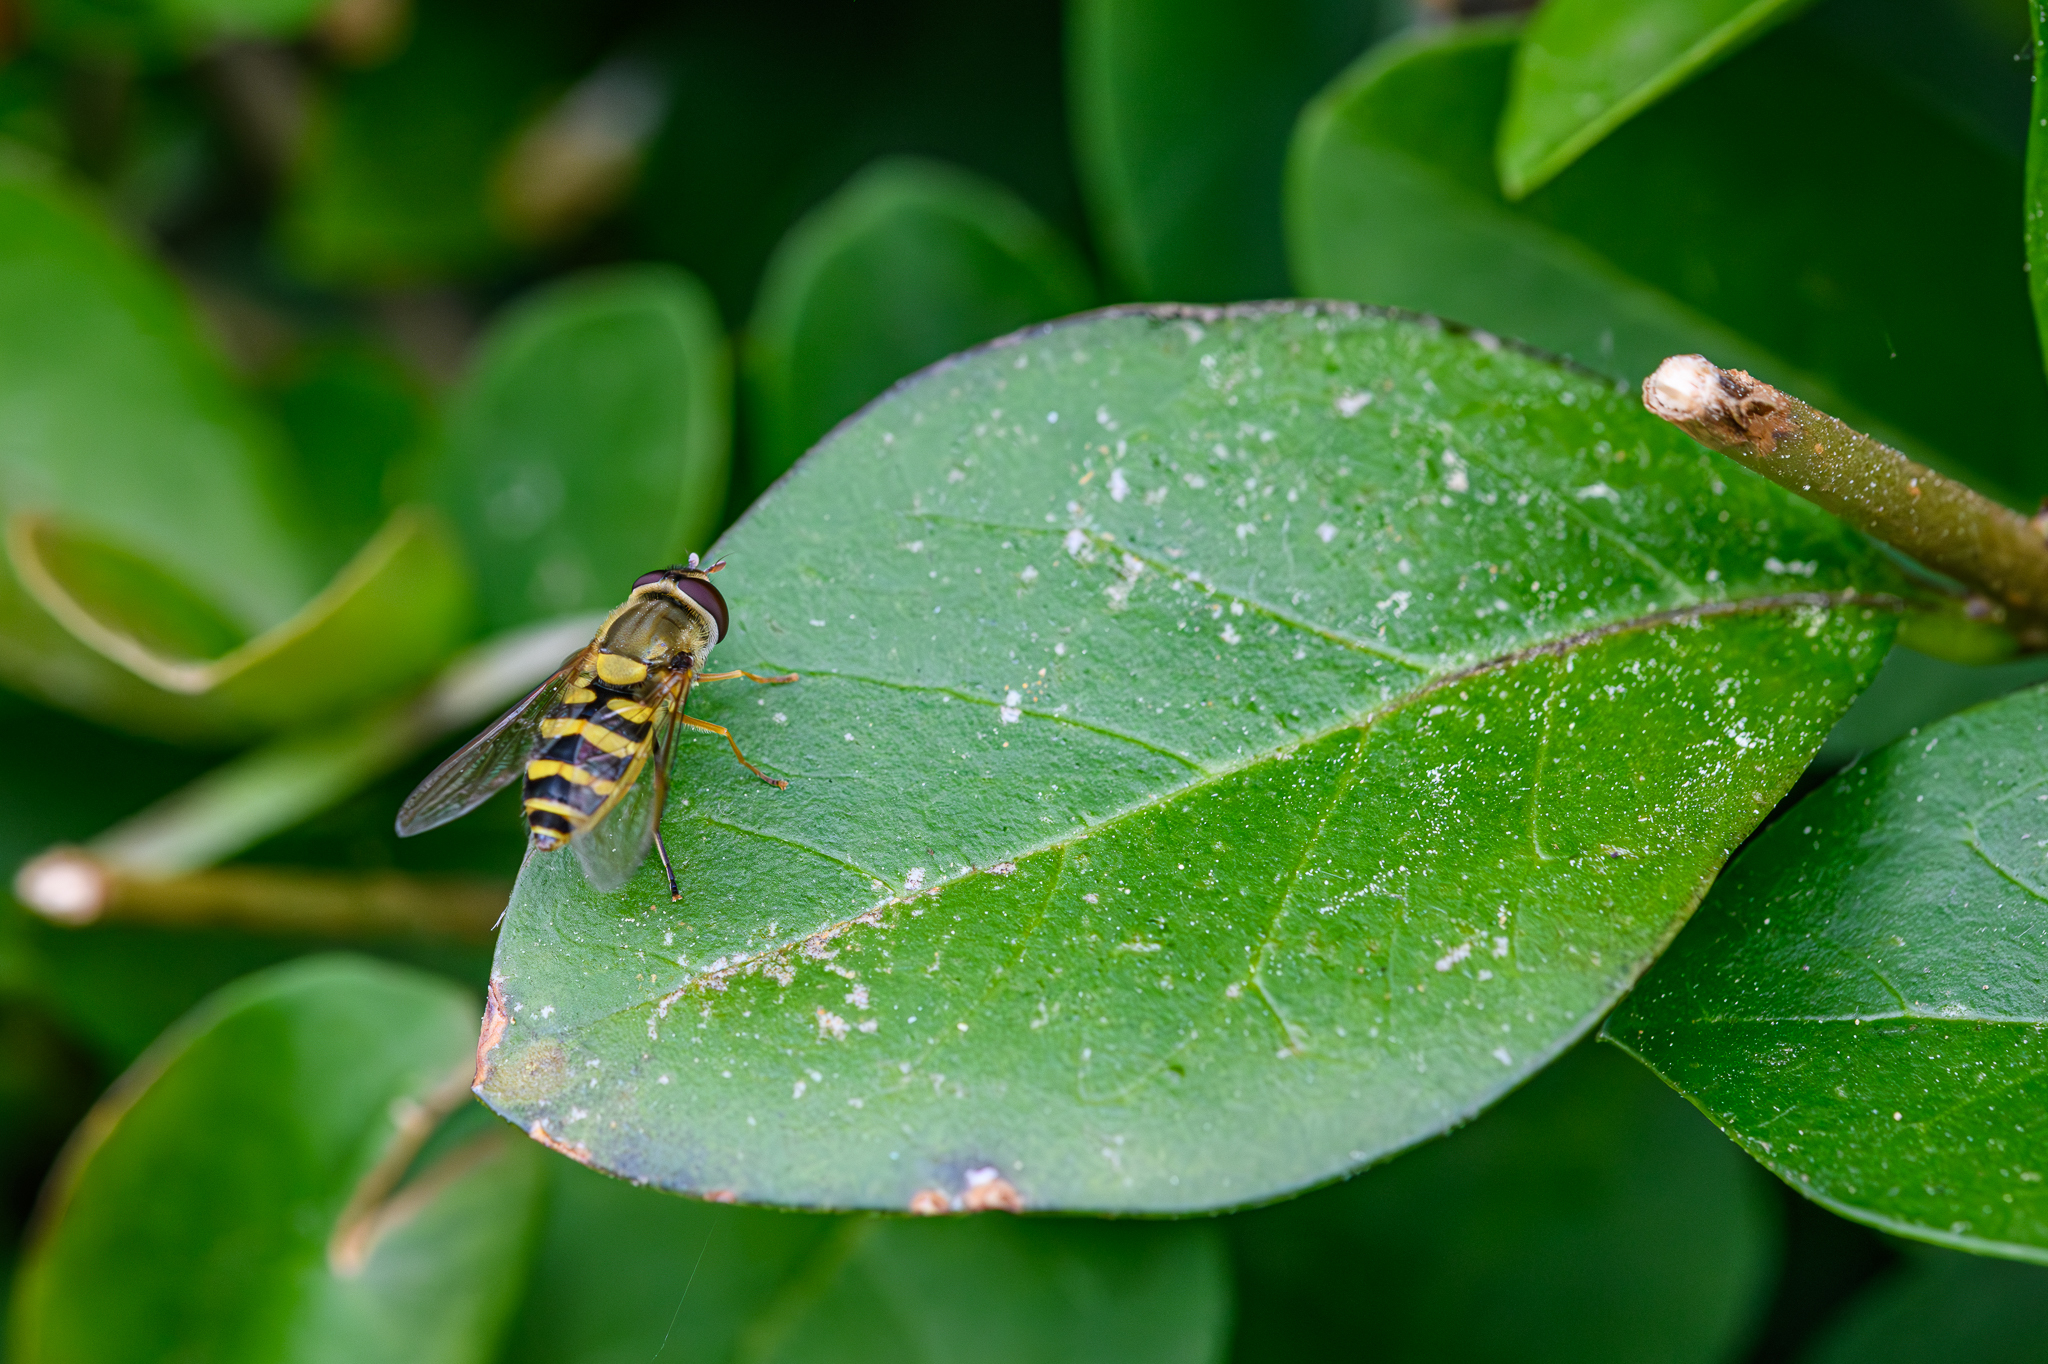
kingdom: Animalia
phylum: Arthropoda
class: Insecta
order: Diptera
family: Syrphidae
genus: Syrphus
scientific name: Syrphus
